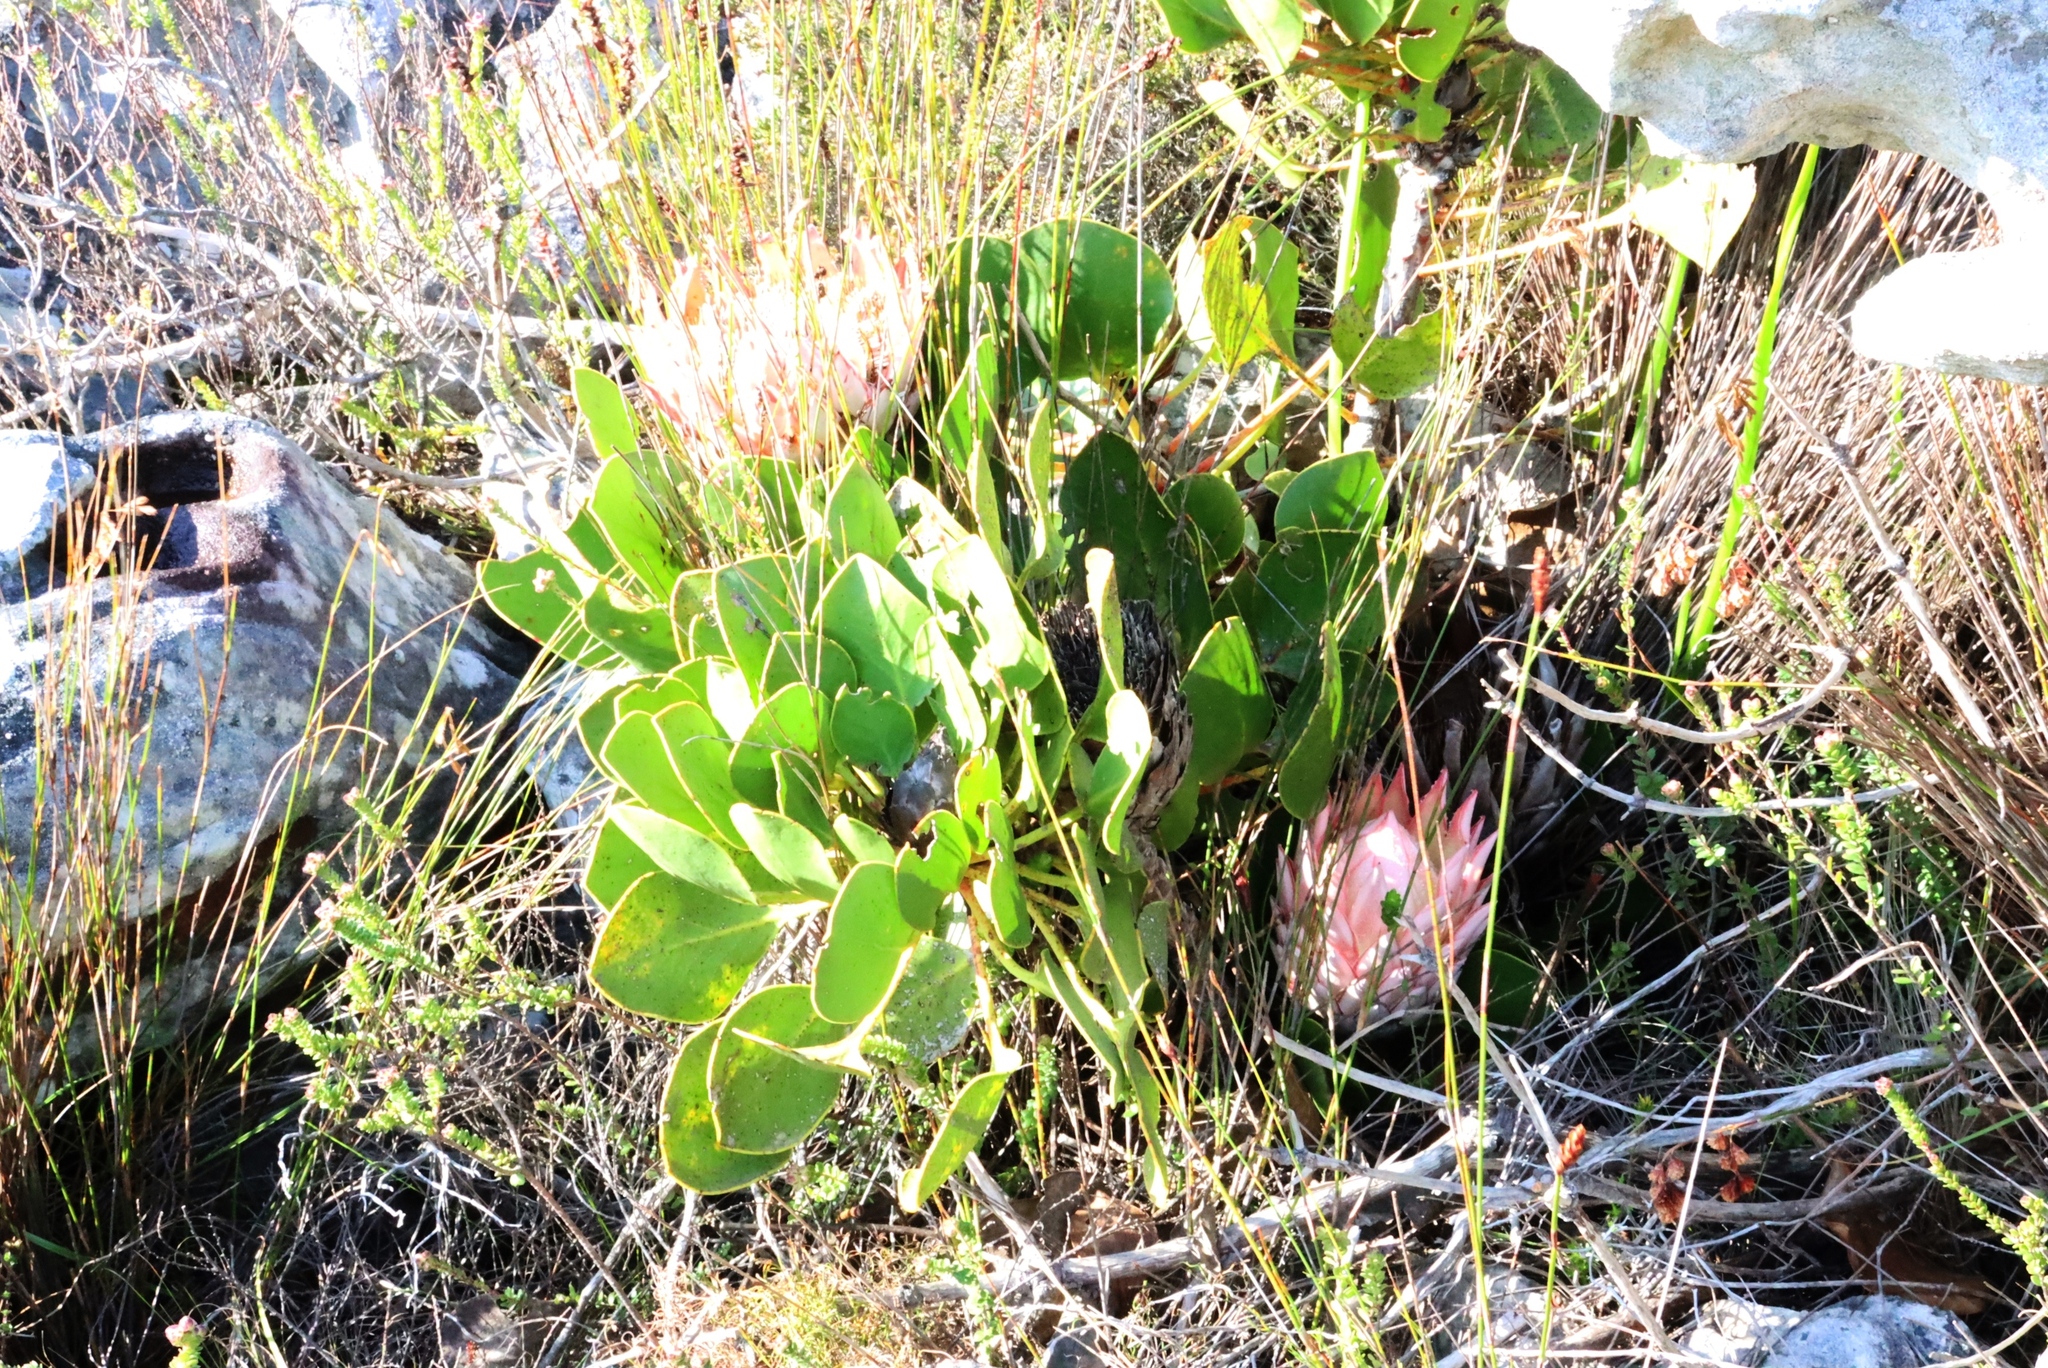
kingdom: Plantae
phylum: Tracheophyta
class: Magnoliopsida
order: Proteales
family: Proteaceae
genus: Protea
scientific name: Protea cynaroides
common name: King protea
